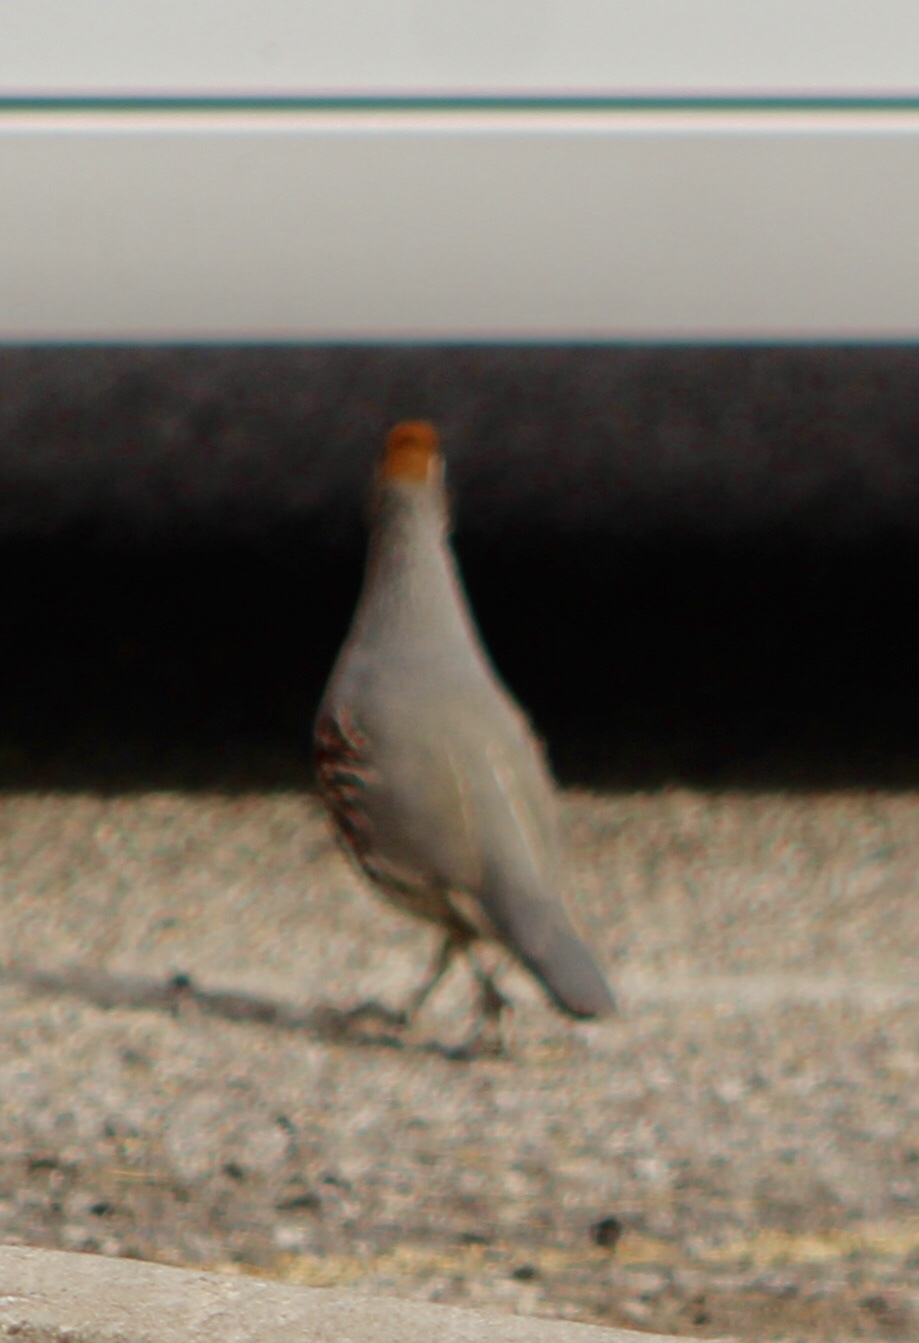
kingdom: Animalia
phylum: Chordata
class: Aves
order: Galliformes
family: Odontophoridae
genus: Callipepla
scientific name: Callipepla gambelii
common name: Gambel's quail
